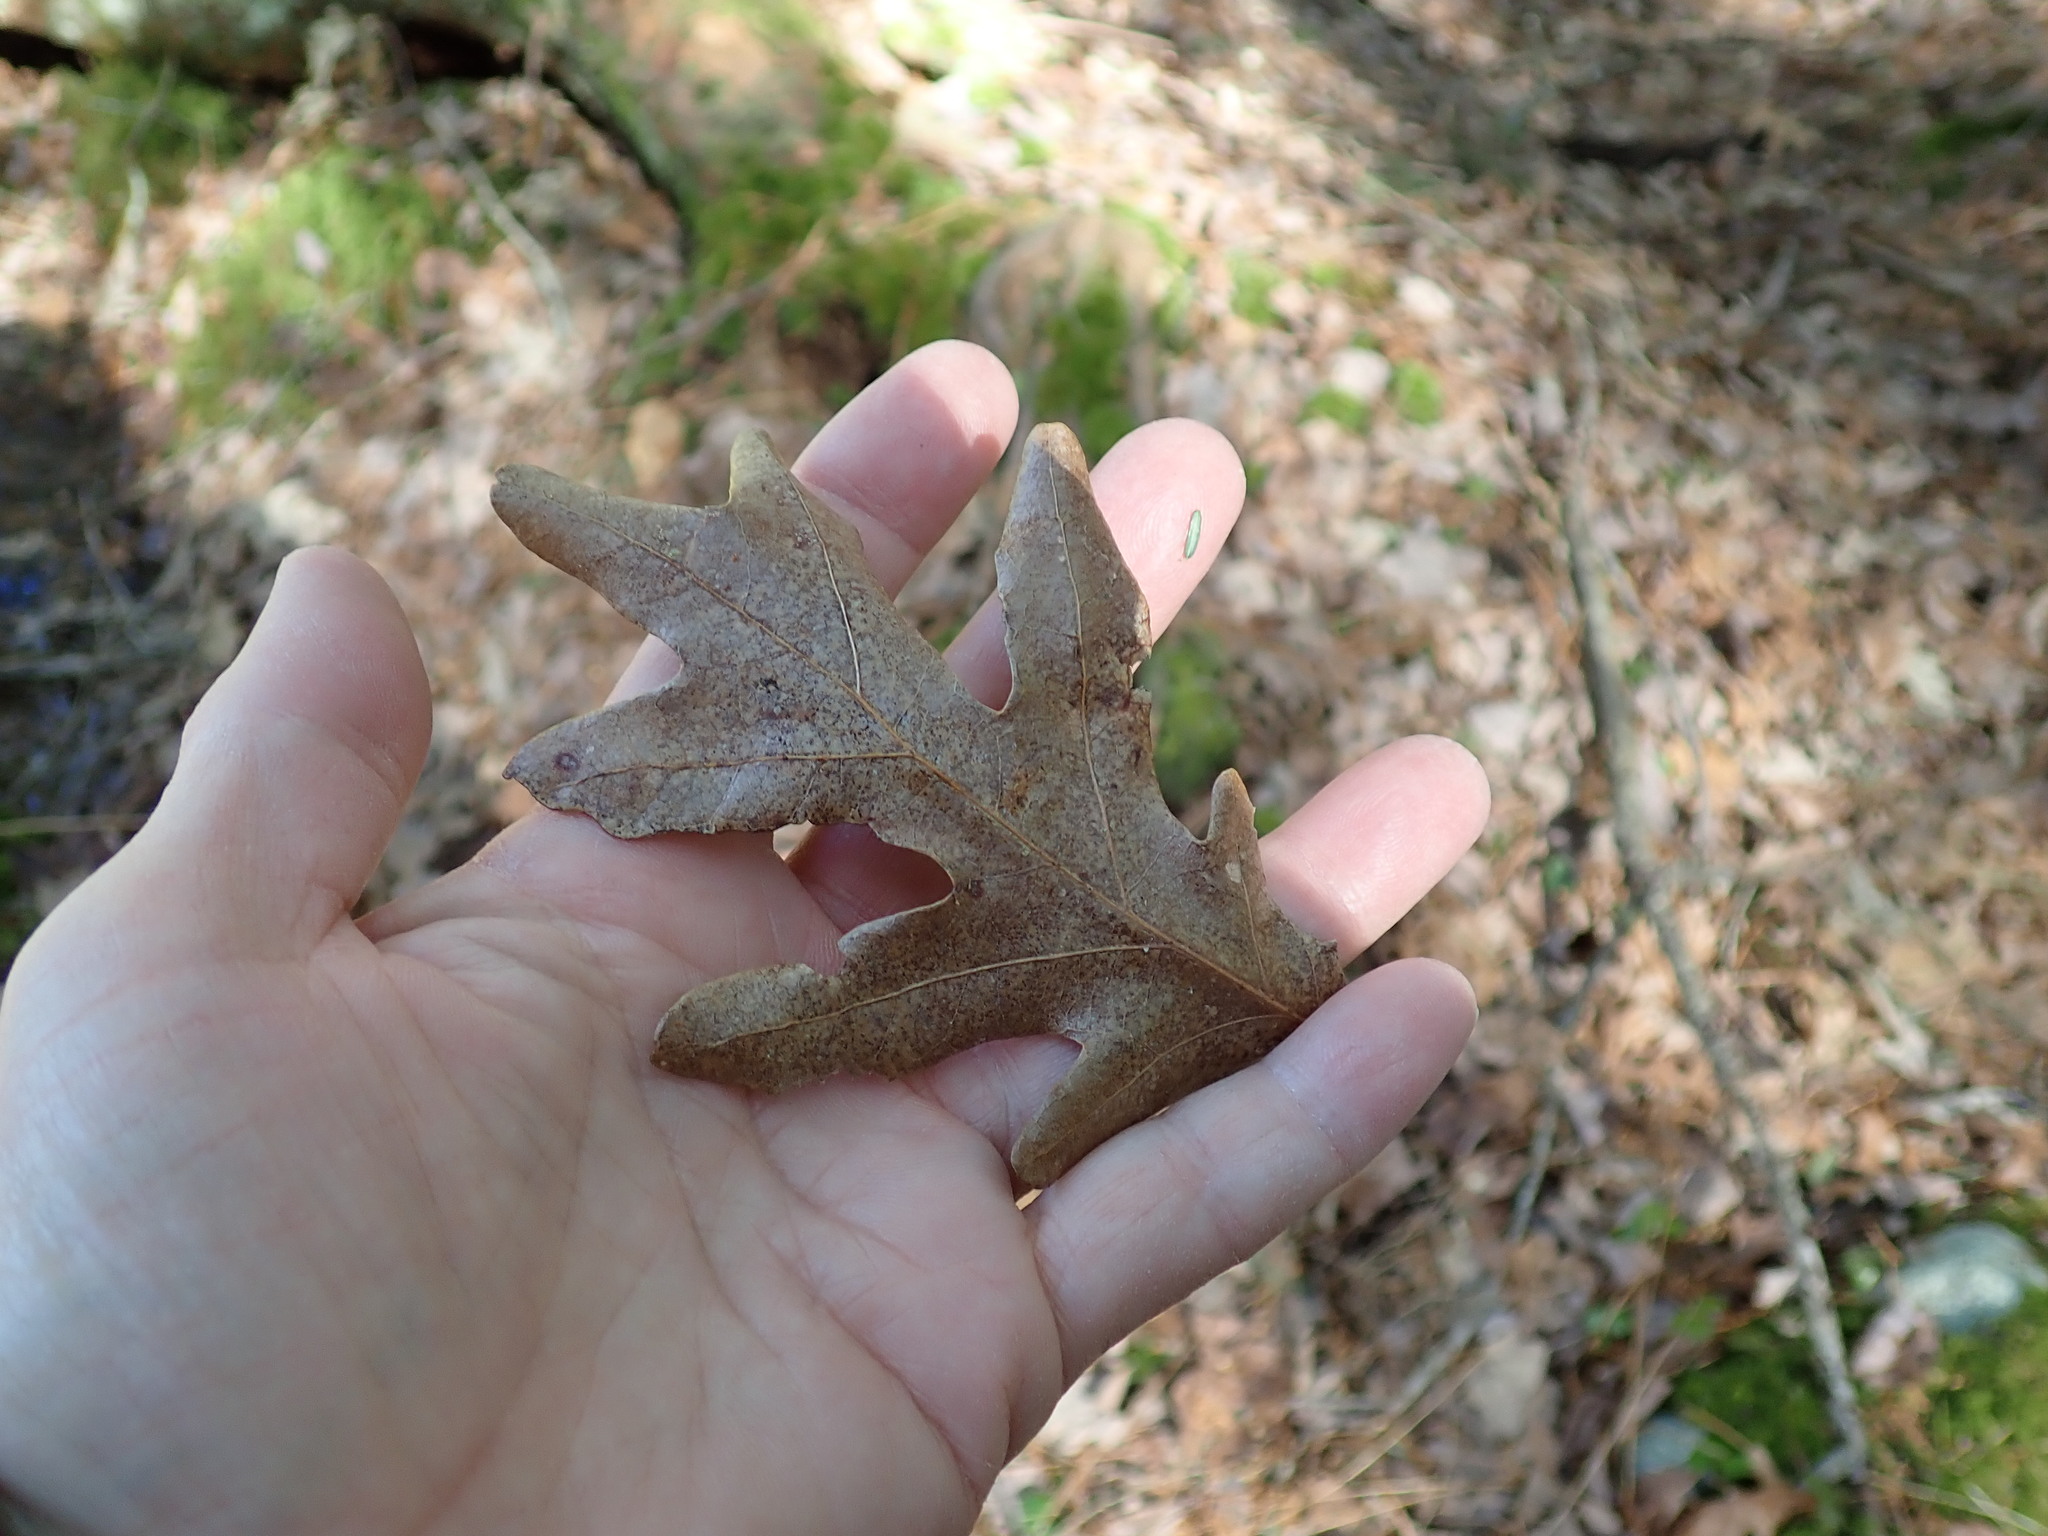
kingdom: Plantae
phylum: Tracheophyta
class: Magnoliopsida
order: Fagales
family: Fagaceae
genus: Quercus
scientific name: Quercus alba
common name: White oak
